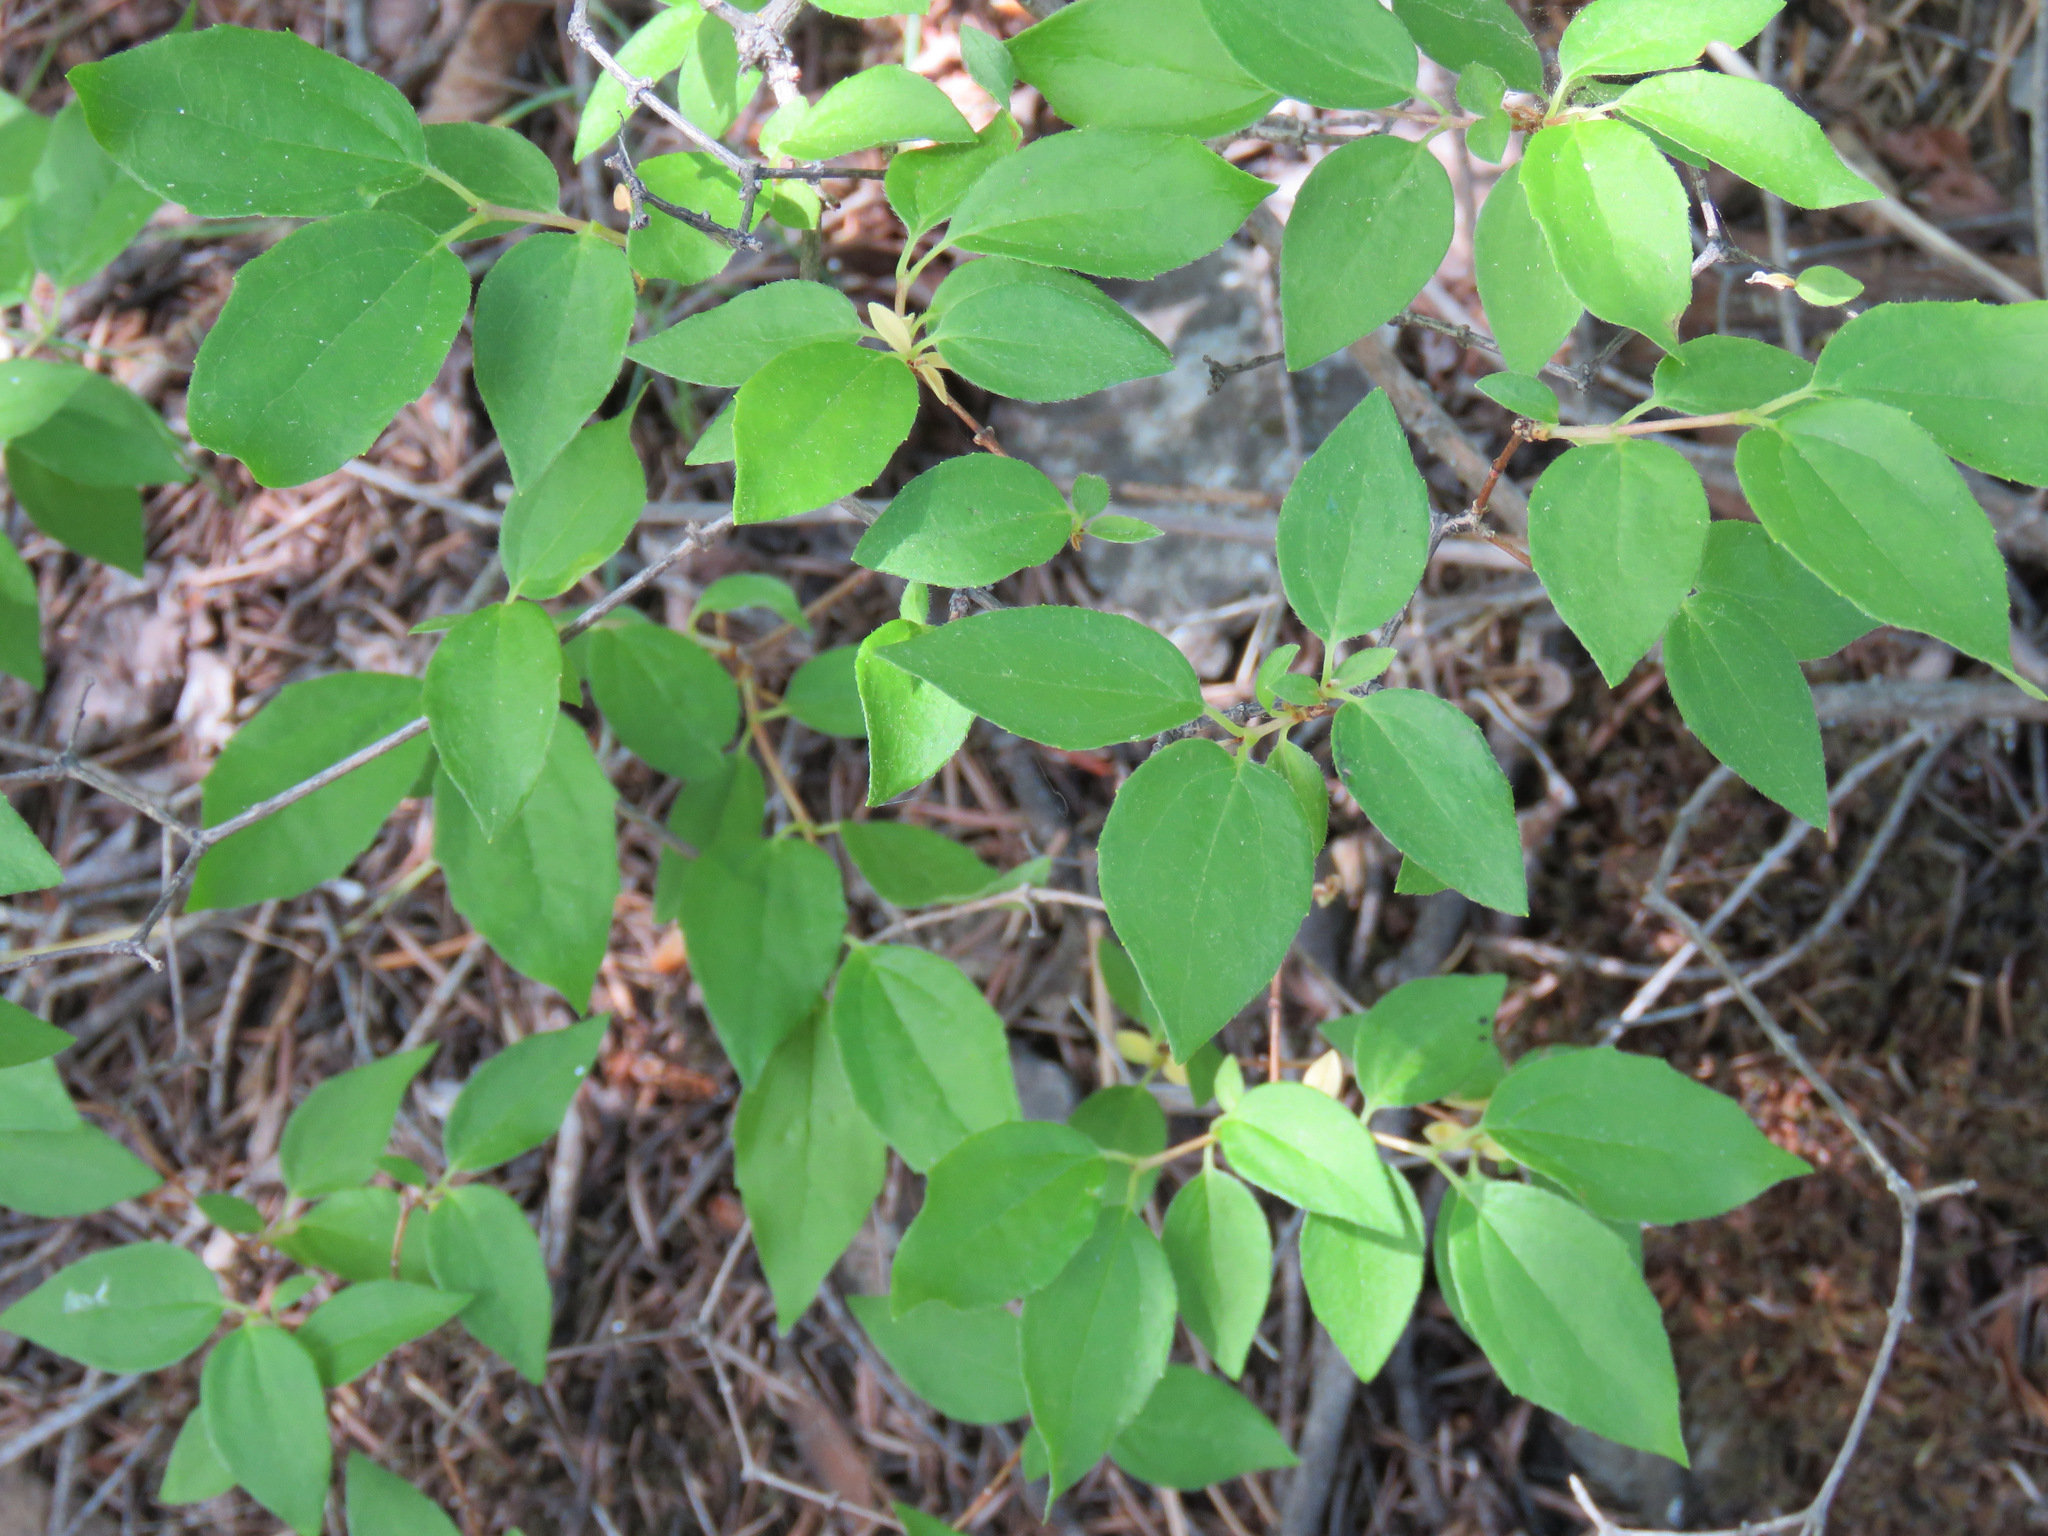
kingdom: Plantae
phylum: Tracheophyta
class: Magnoliopsida
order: Cornales
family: Hydrangeaceae
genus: Philadelphus
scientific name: Philadelphus lewisii
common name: Lewis's mock orange
